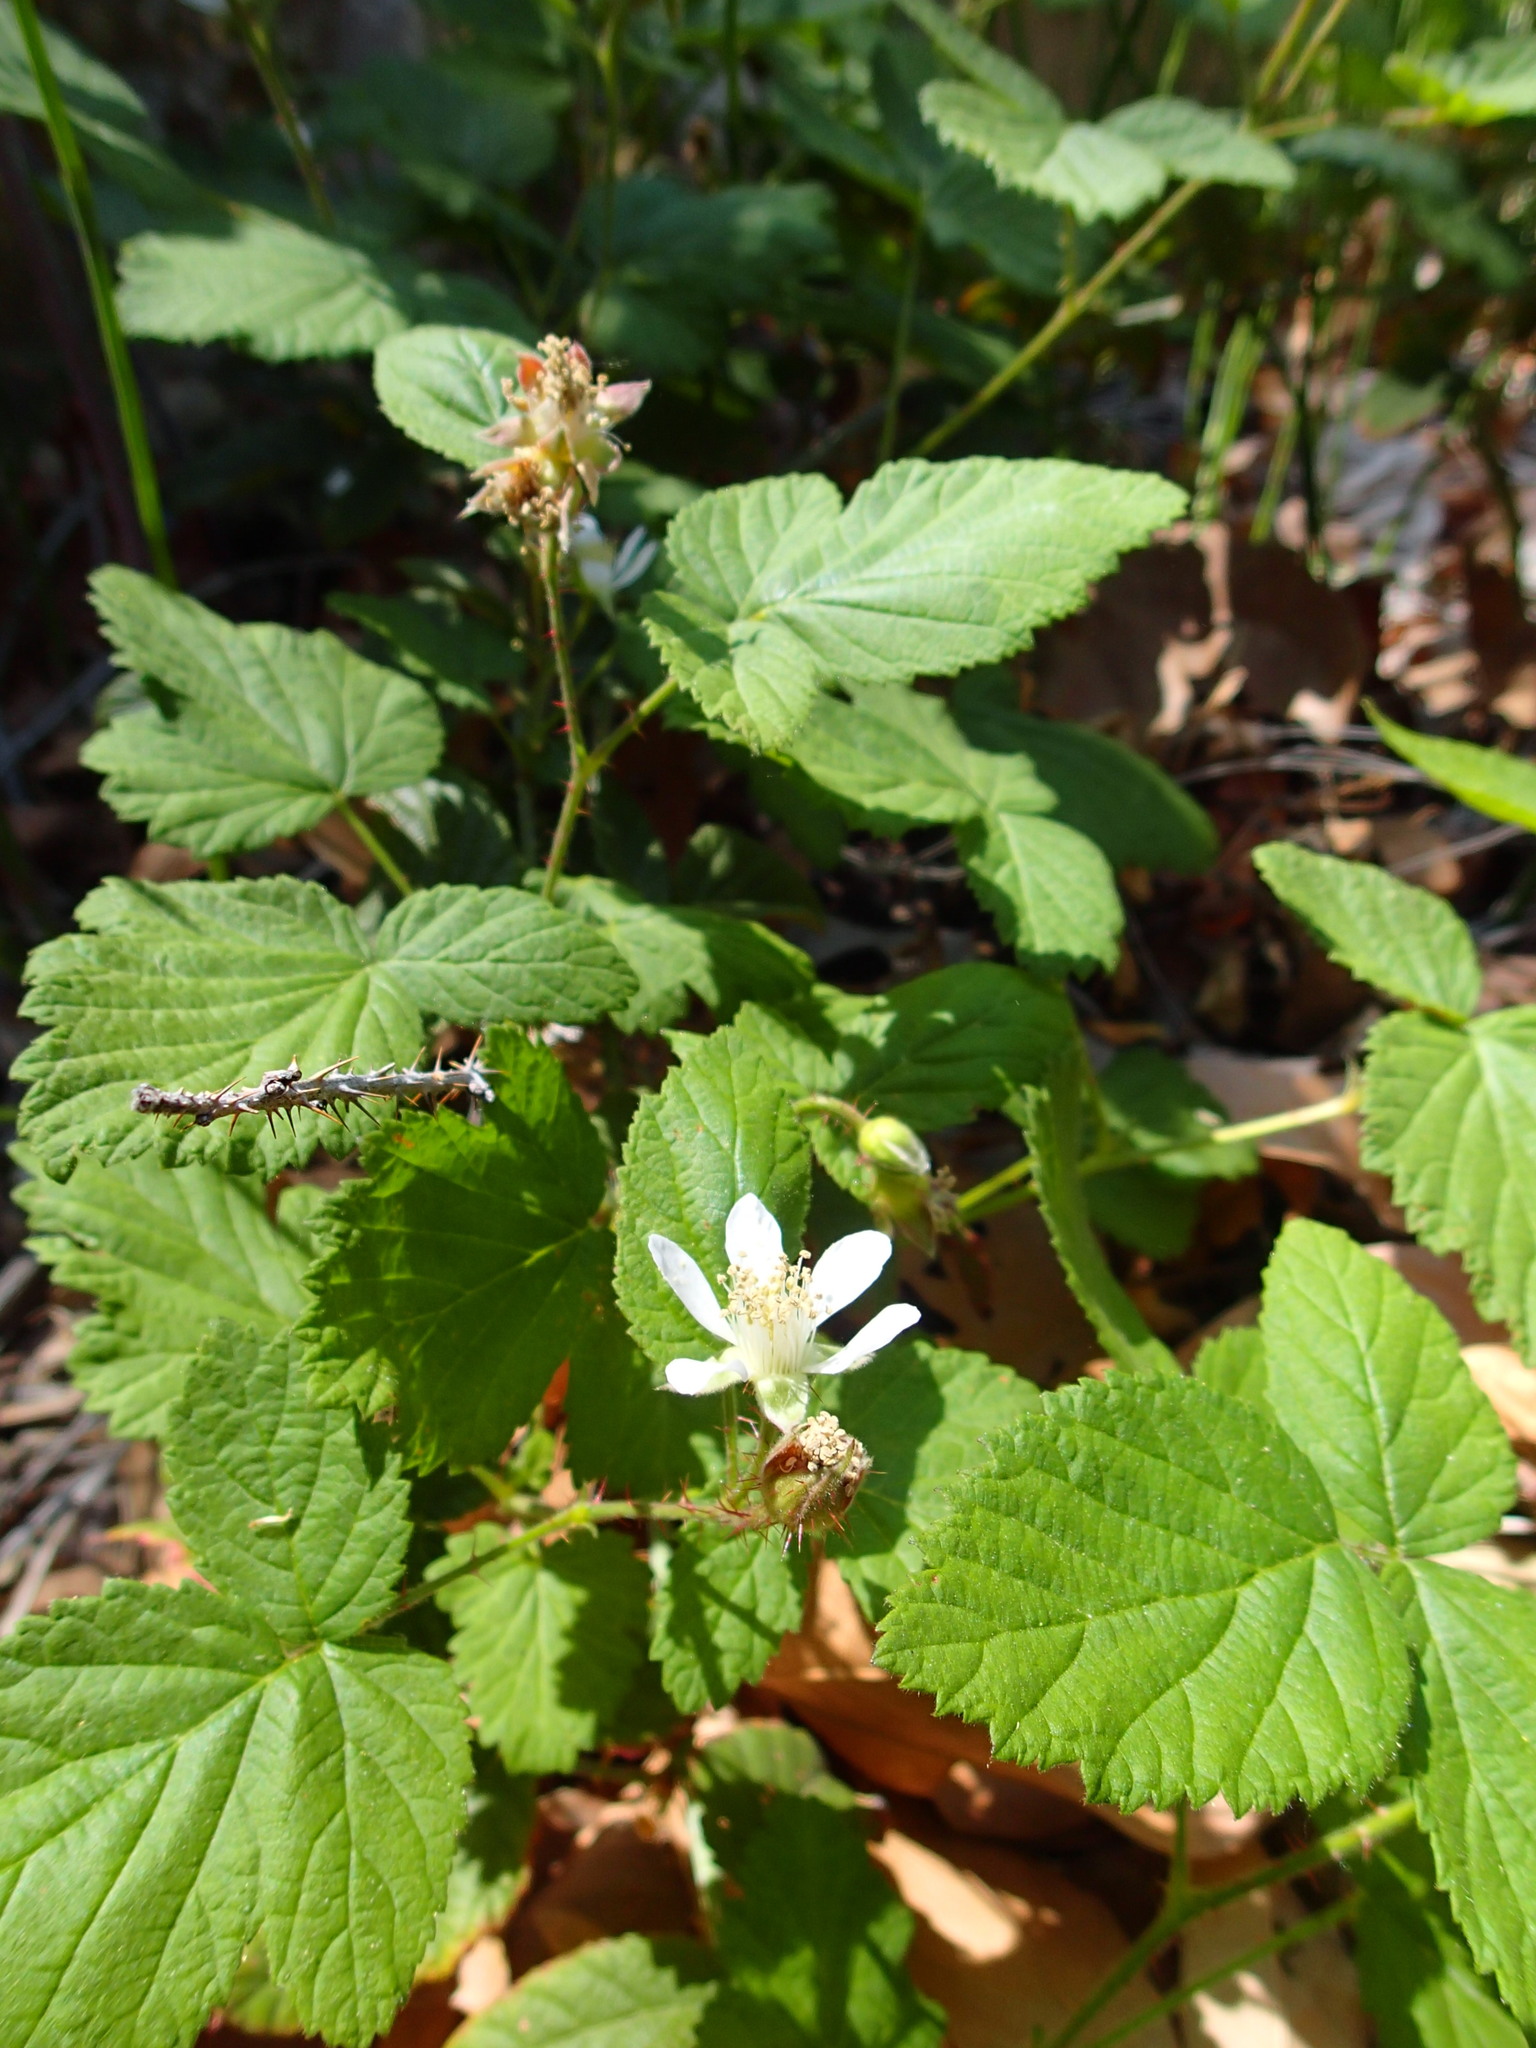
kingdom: Plantae
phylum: Tracheophyta
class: Magnoliopsida
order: Rosales
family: Rosaceae
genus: Rubus
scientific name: Rubus ursinus
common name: Pacific blackberry
